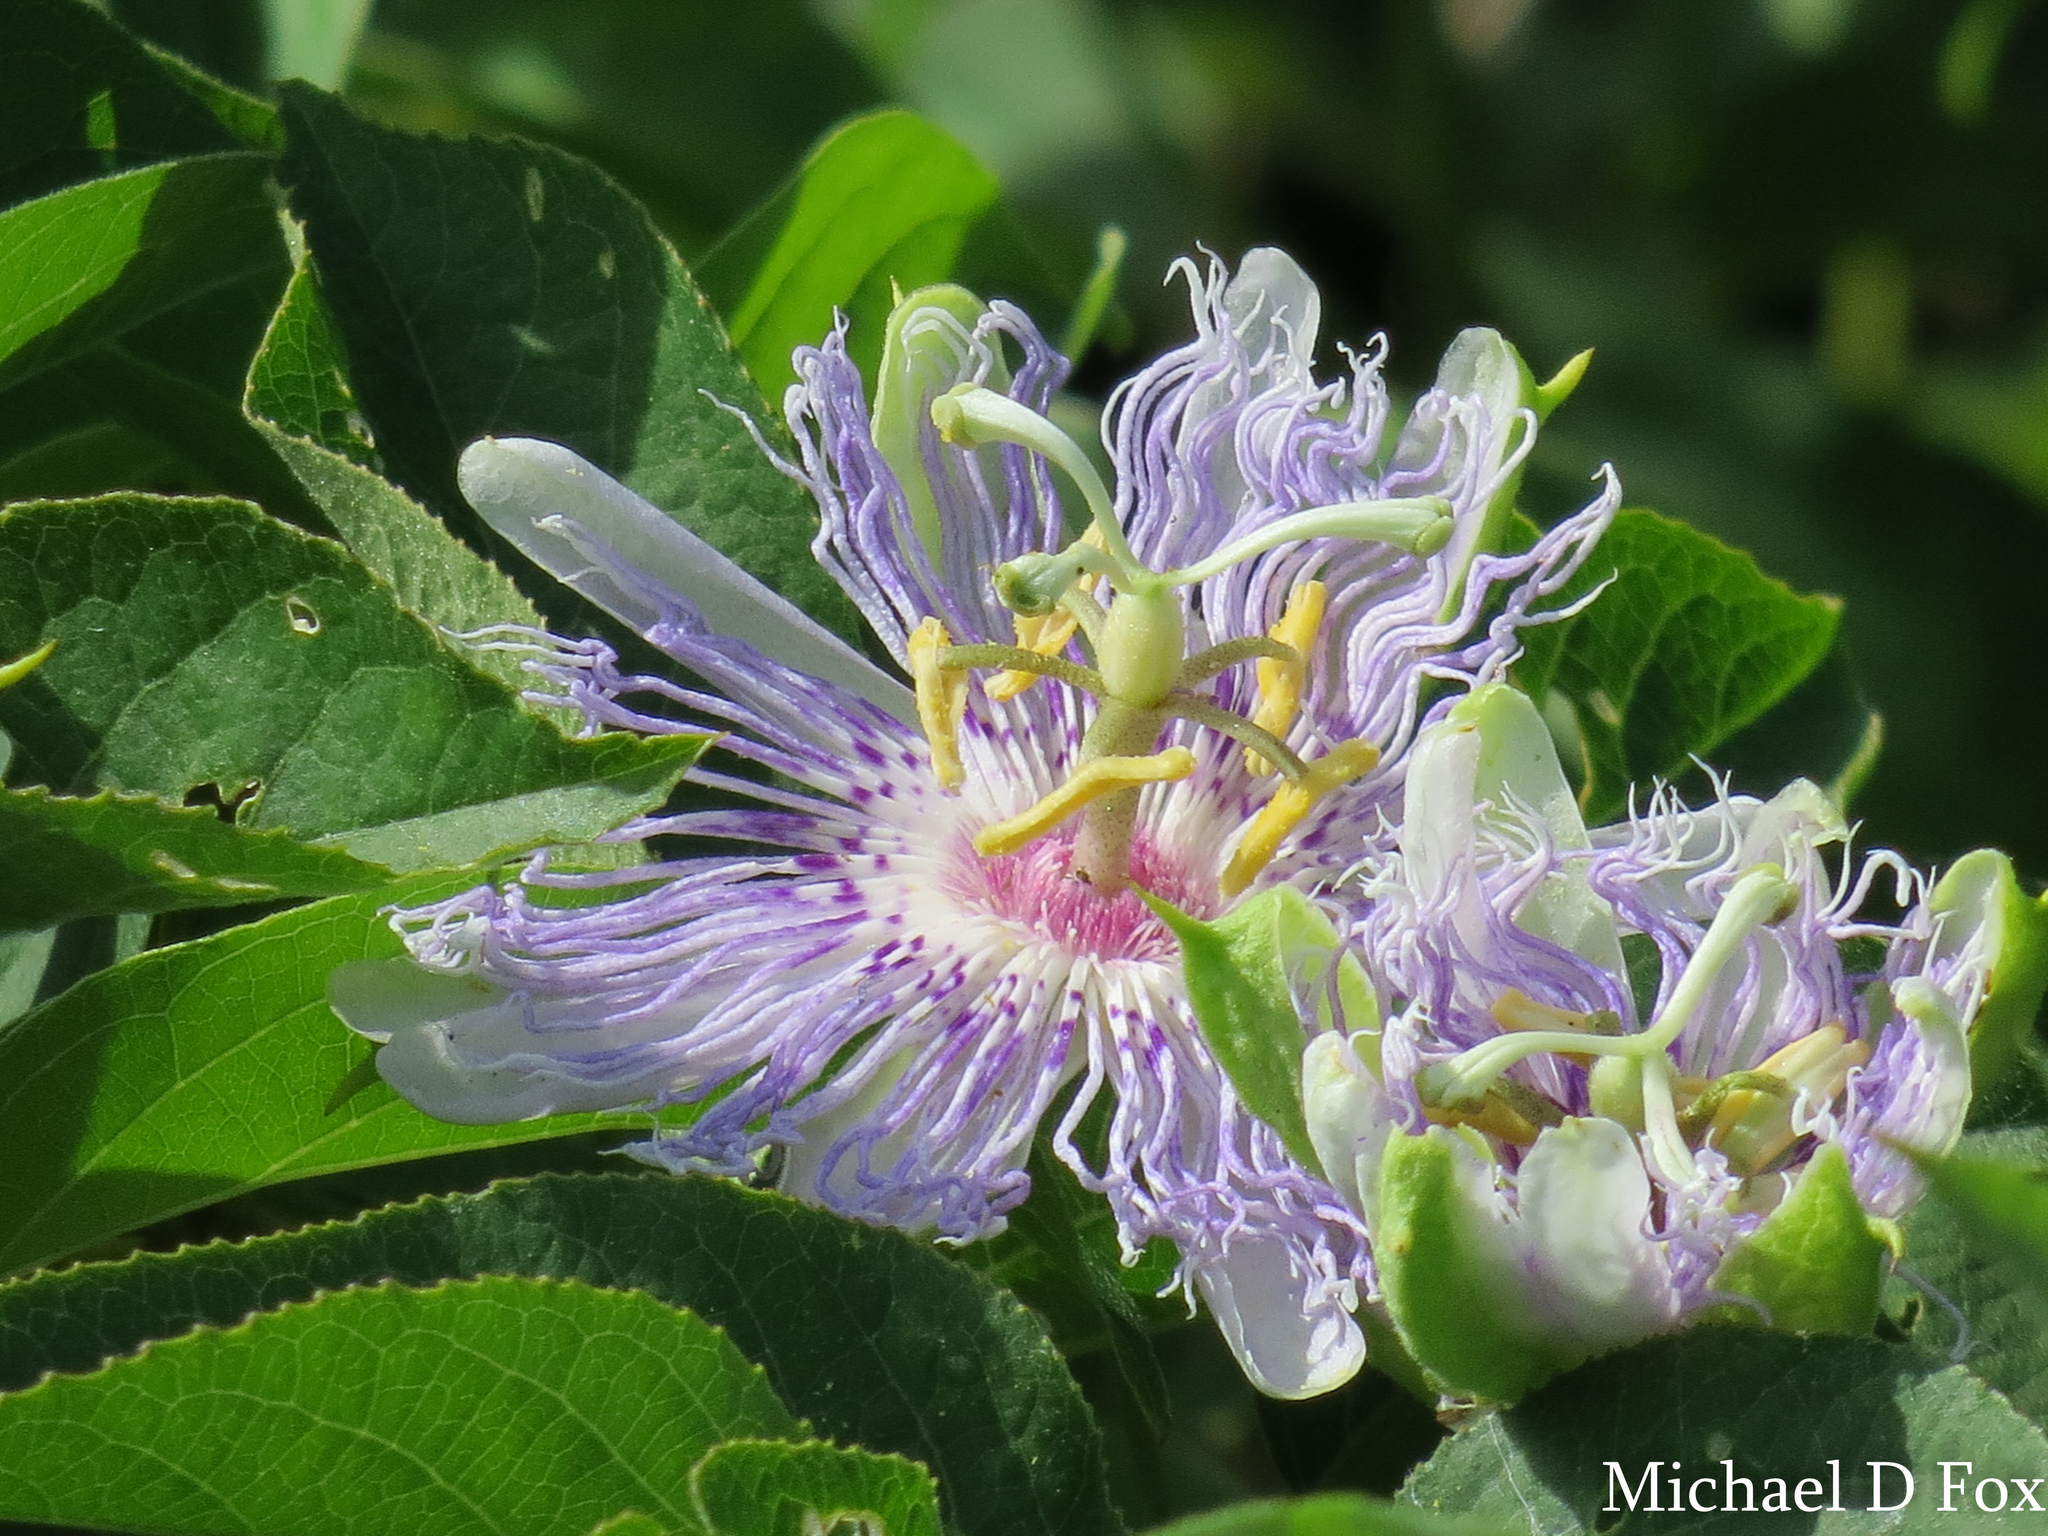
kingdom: Plantae
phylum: Tracheophyta
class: Magnoliopsida
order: Malpighiales
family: Passifloraceae
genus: Passiflora
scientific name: Passiflora incarnata
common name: Apricot-vine
